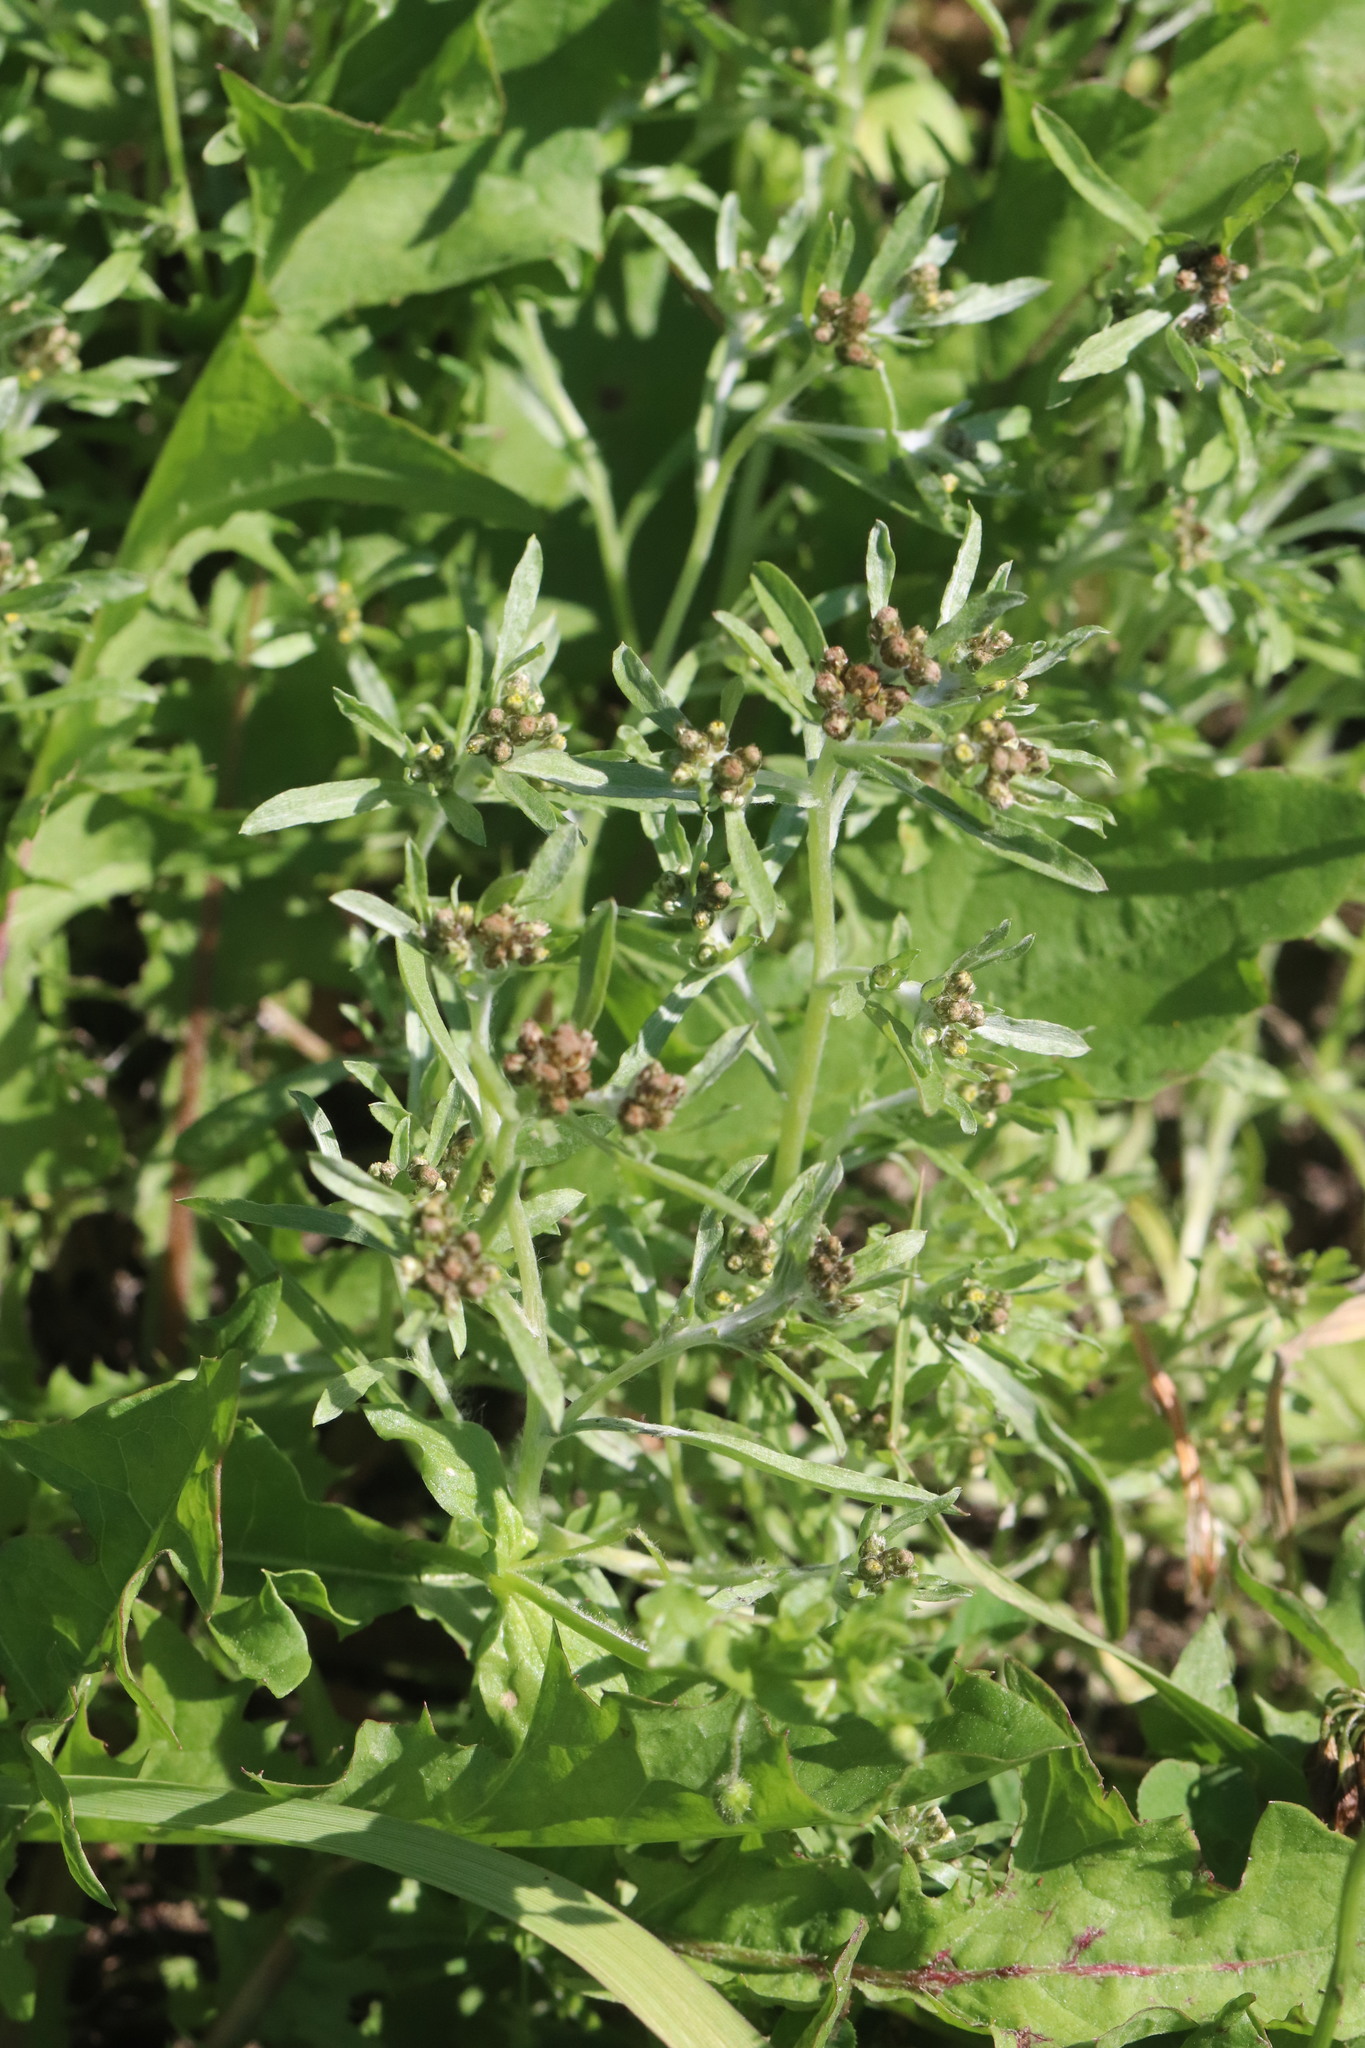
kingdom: Plantae
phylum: Tracheophyta
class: Magnoliopsida
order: Asterales
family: Asteraceae
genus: Gnaphalium
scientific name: Gnaphalium uliginosum
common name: Marsh cudweed
